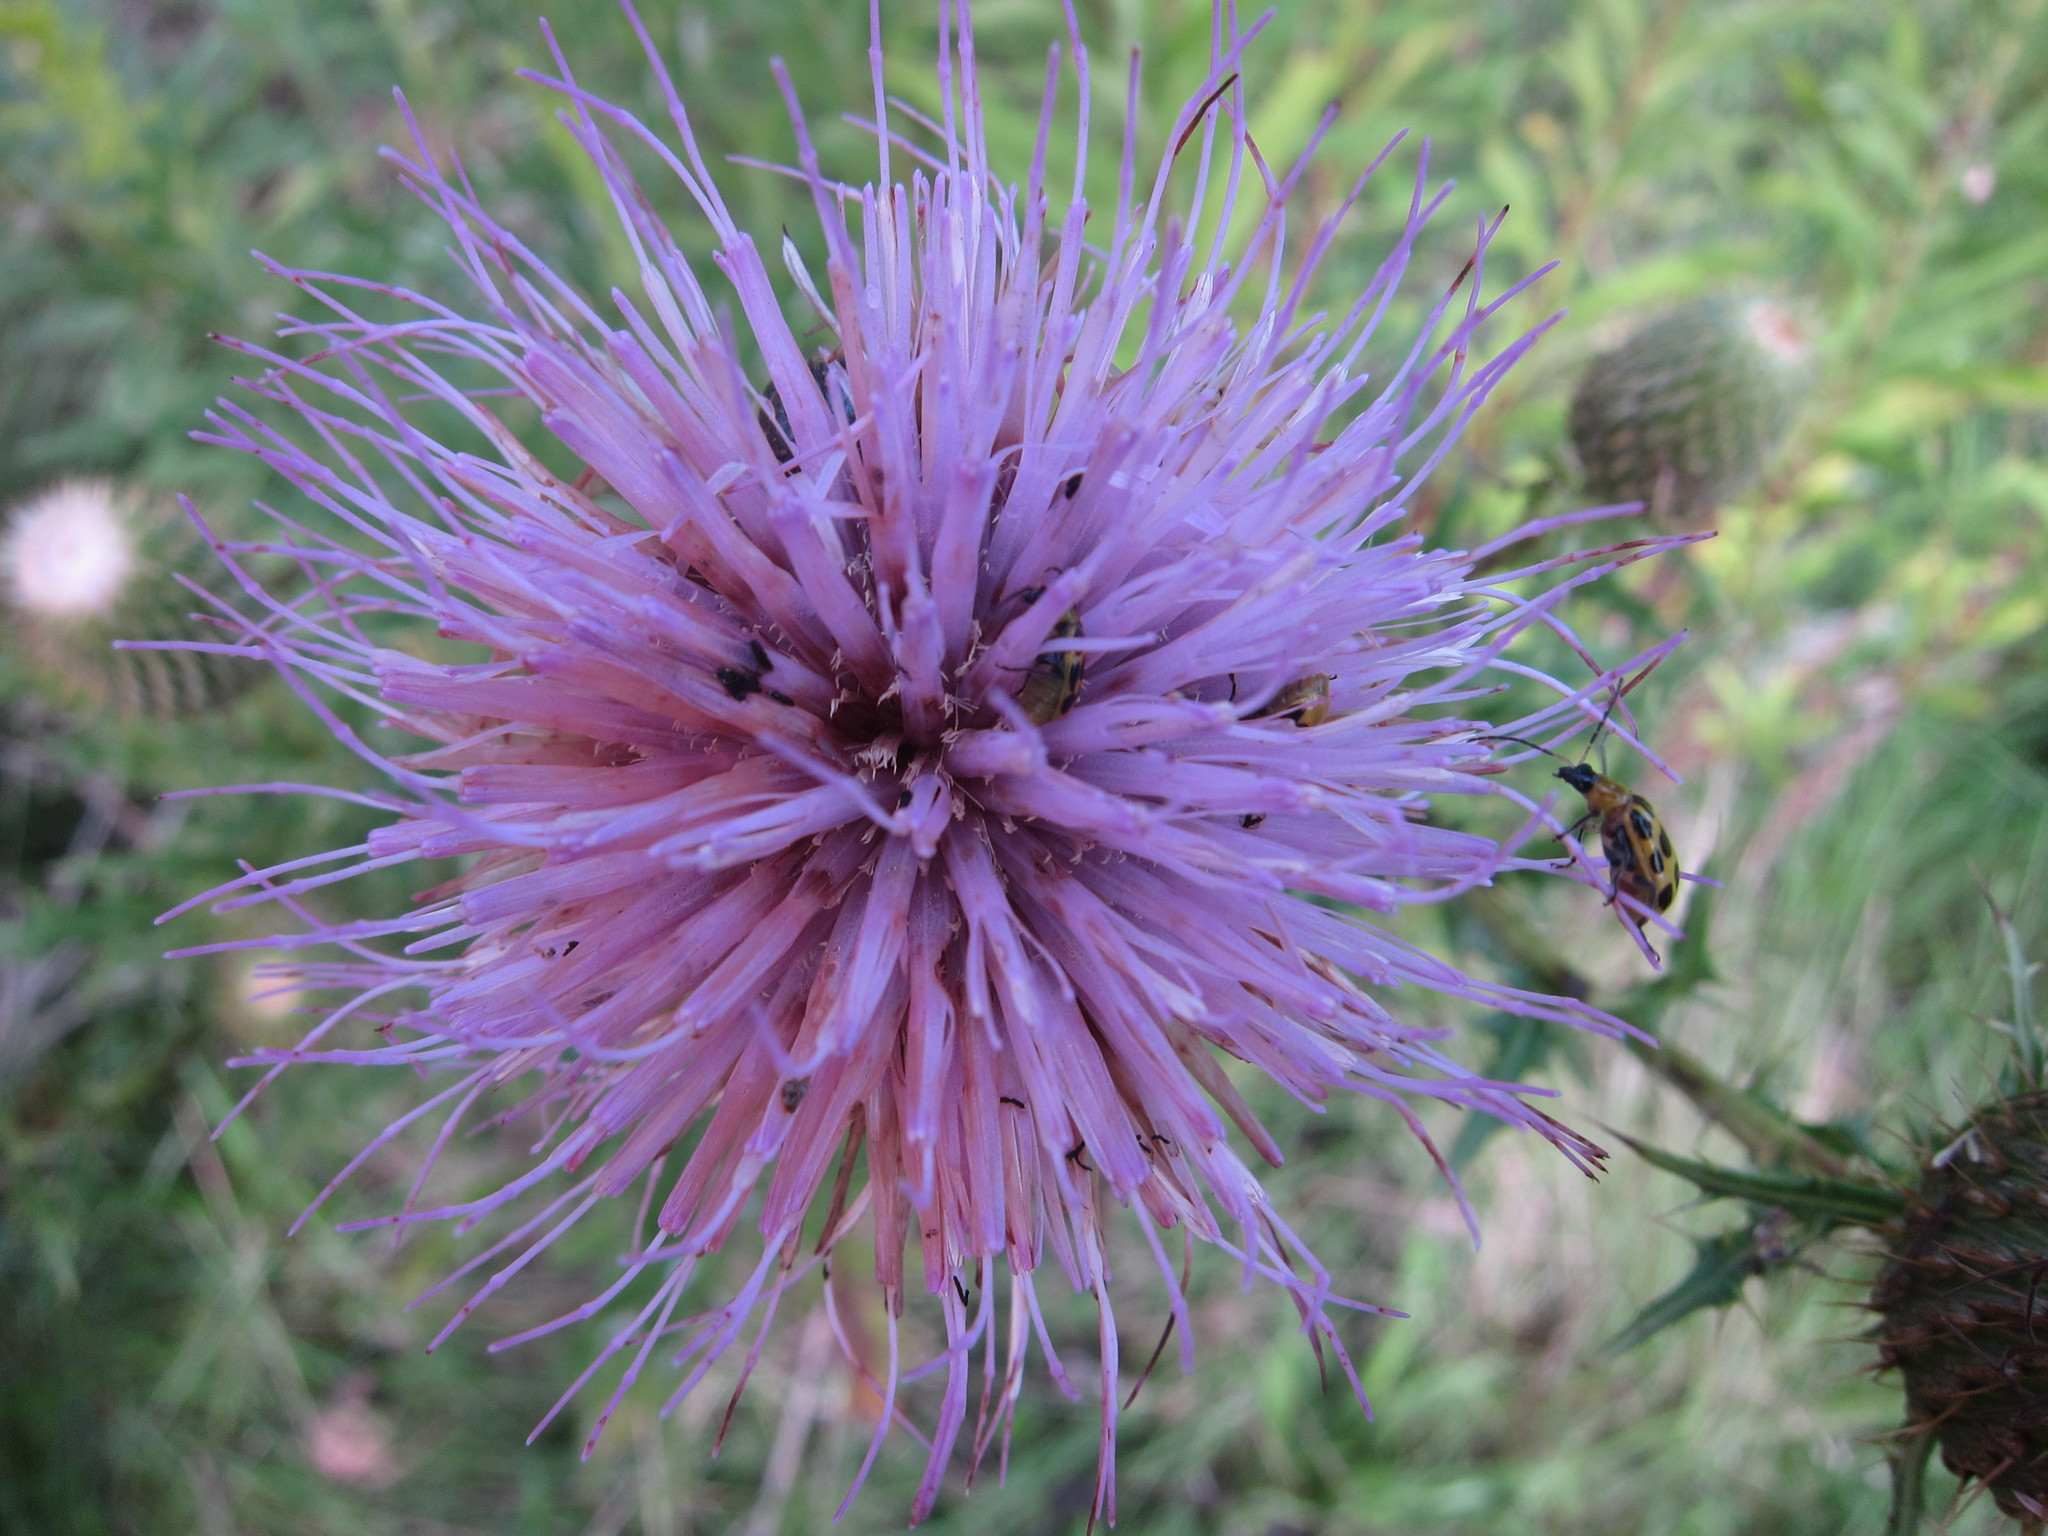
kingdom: Plantae
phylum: Tracheophyta
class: Magnoliopsida
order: Asterales
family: Asteraceae
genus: Cirsium
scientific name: Cirsium discolor
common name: Field thistle
